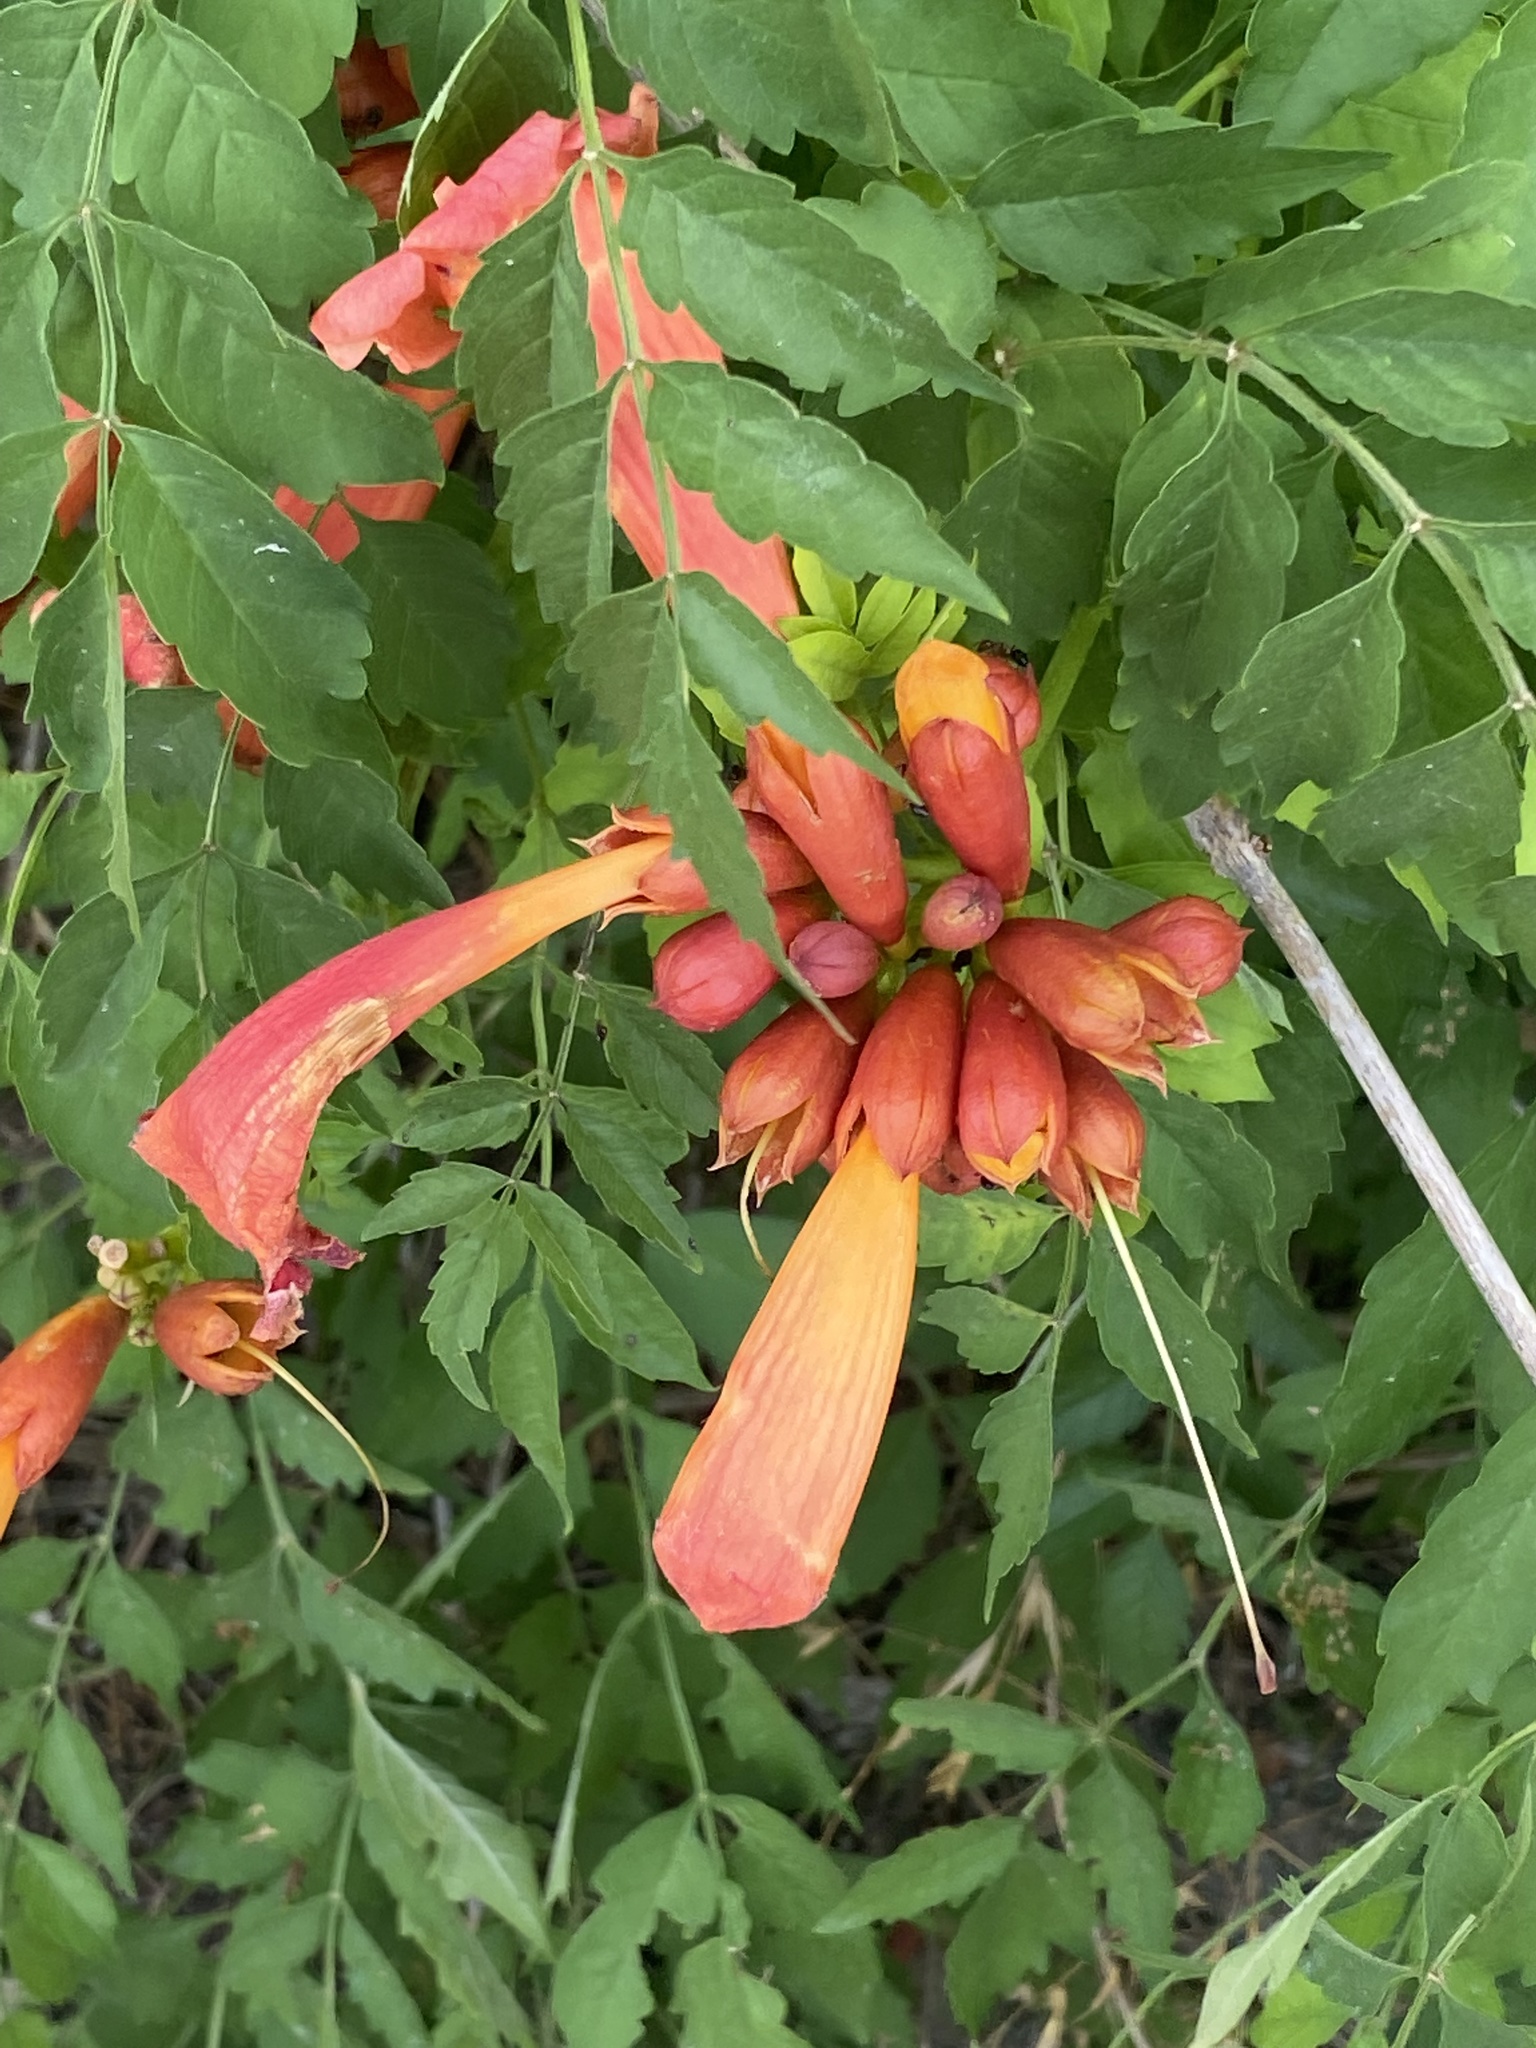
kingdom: Plantae
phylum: Tracheophyta
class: Magnoliopsida
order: Lamiales
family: Bignoniaceae
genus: Campsis
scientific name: Campsis radicans
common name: Trumpet-creeper
